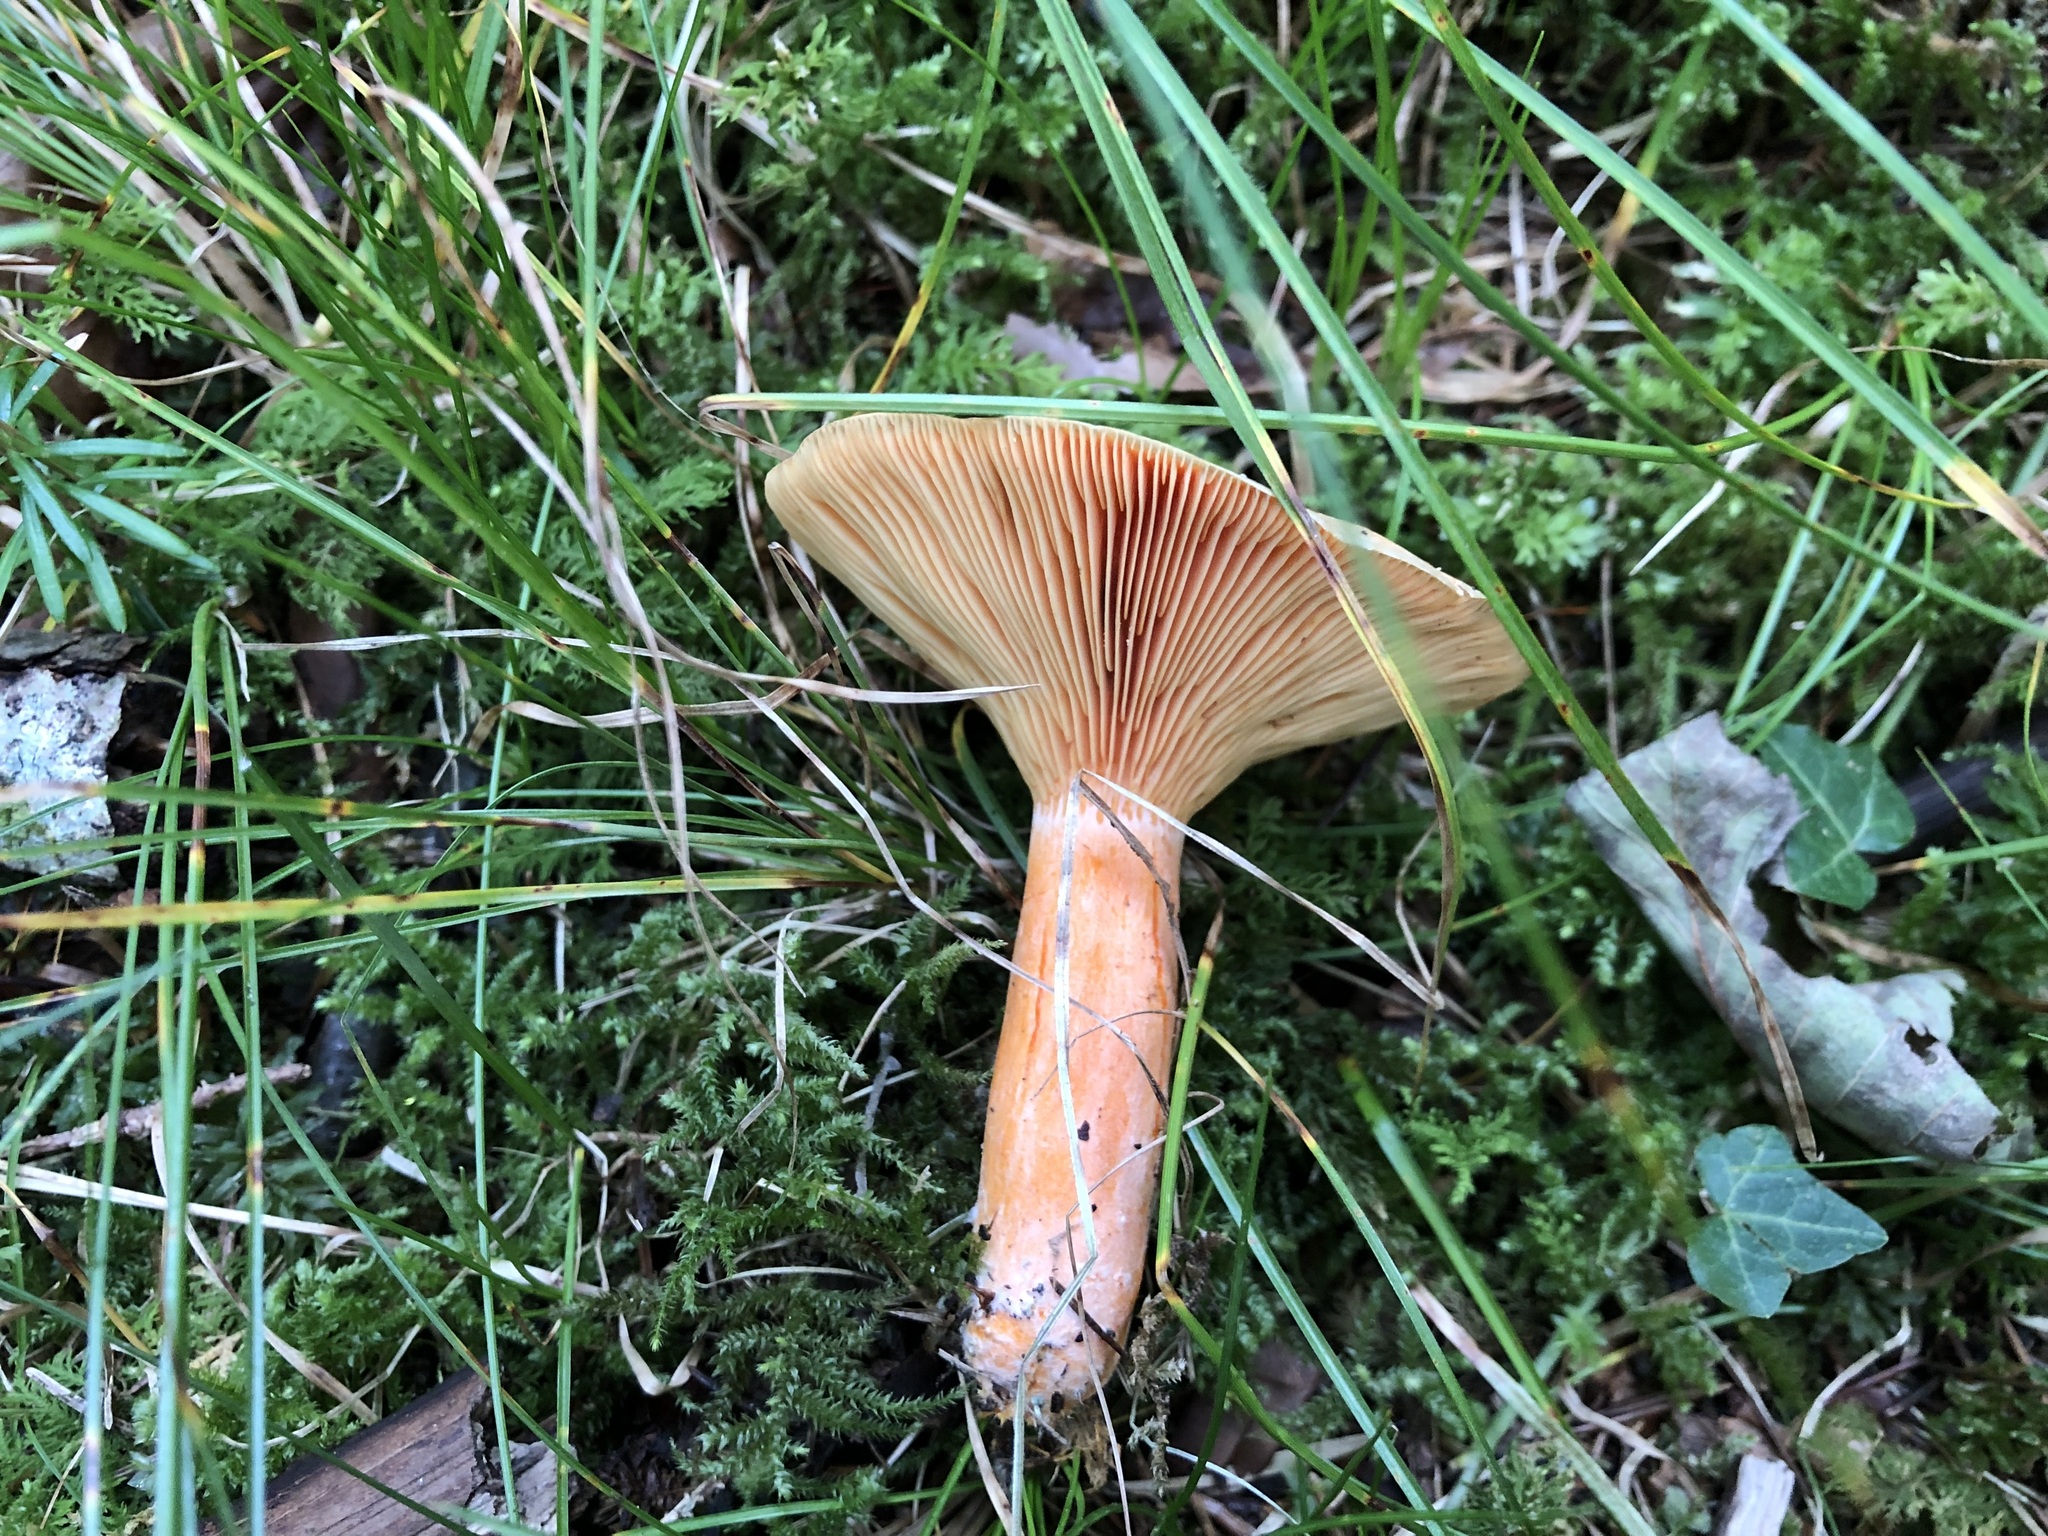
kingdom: Fungi
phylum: Basidiomycota
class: Agaricomycetes
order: Russulales
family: Russulaceae
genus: Lactarius
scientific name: Lactarius deterrimus
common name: False saffron milkcap
